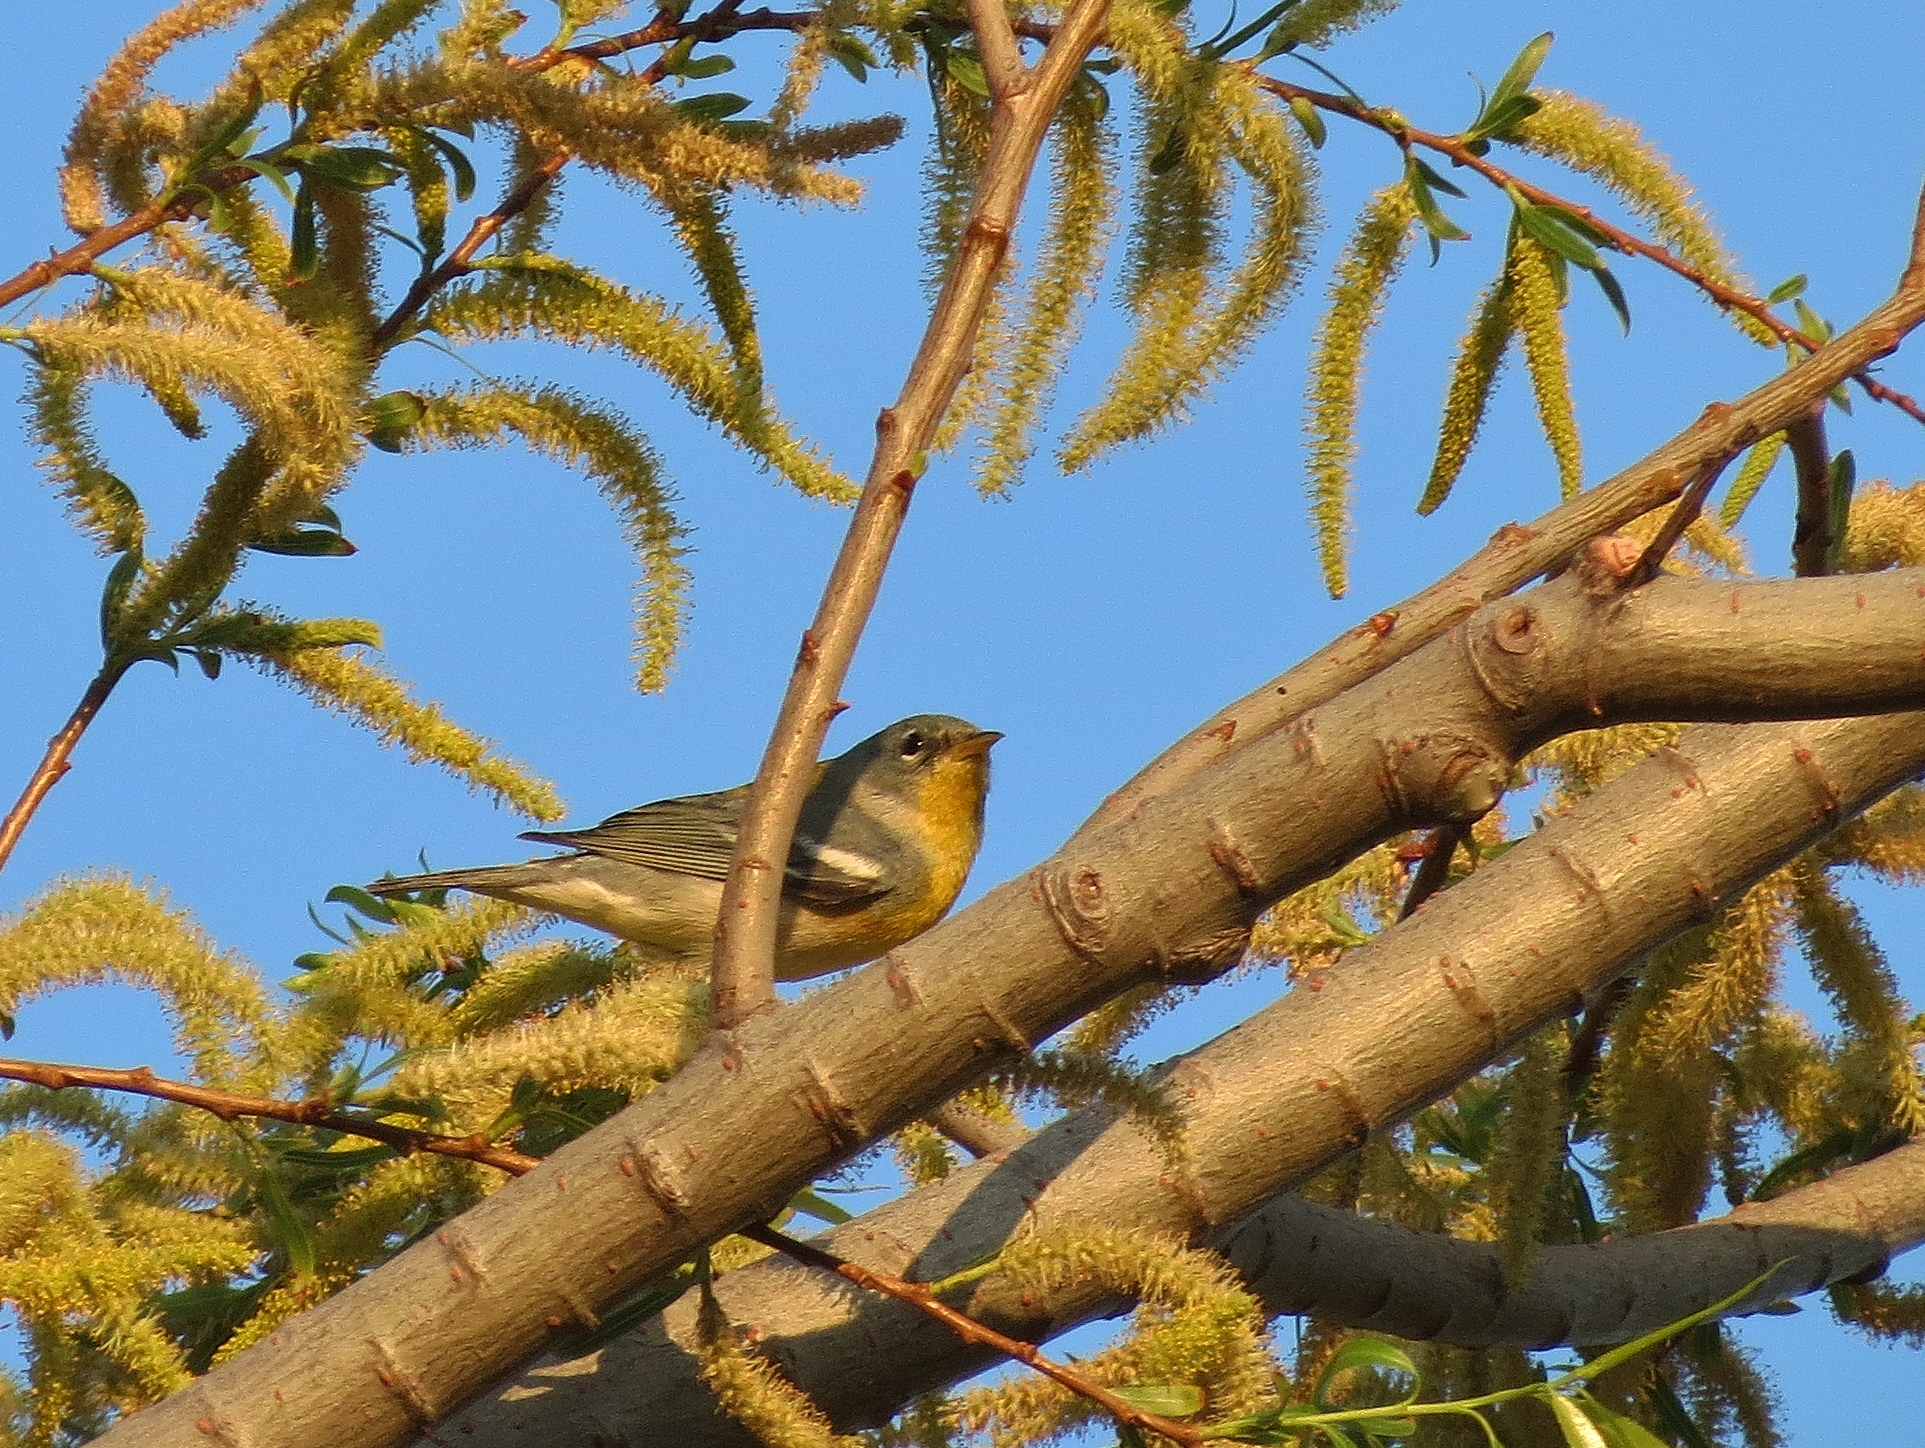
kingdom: Animalia
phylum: Chordata
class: Aves
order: Passeriformes
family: Parulidae
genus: Setophaga
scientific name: Setophaga americana
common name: Northern parula
